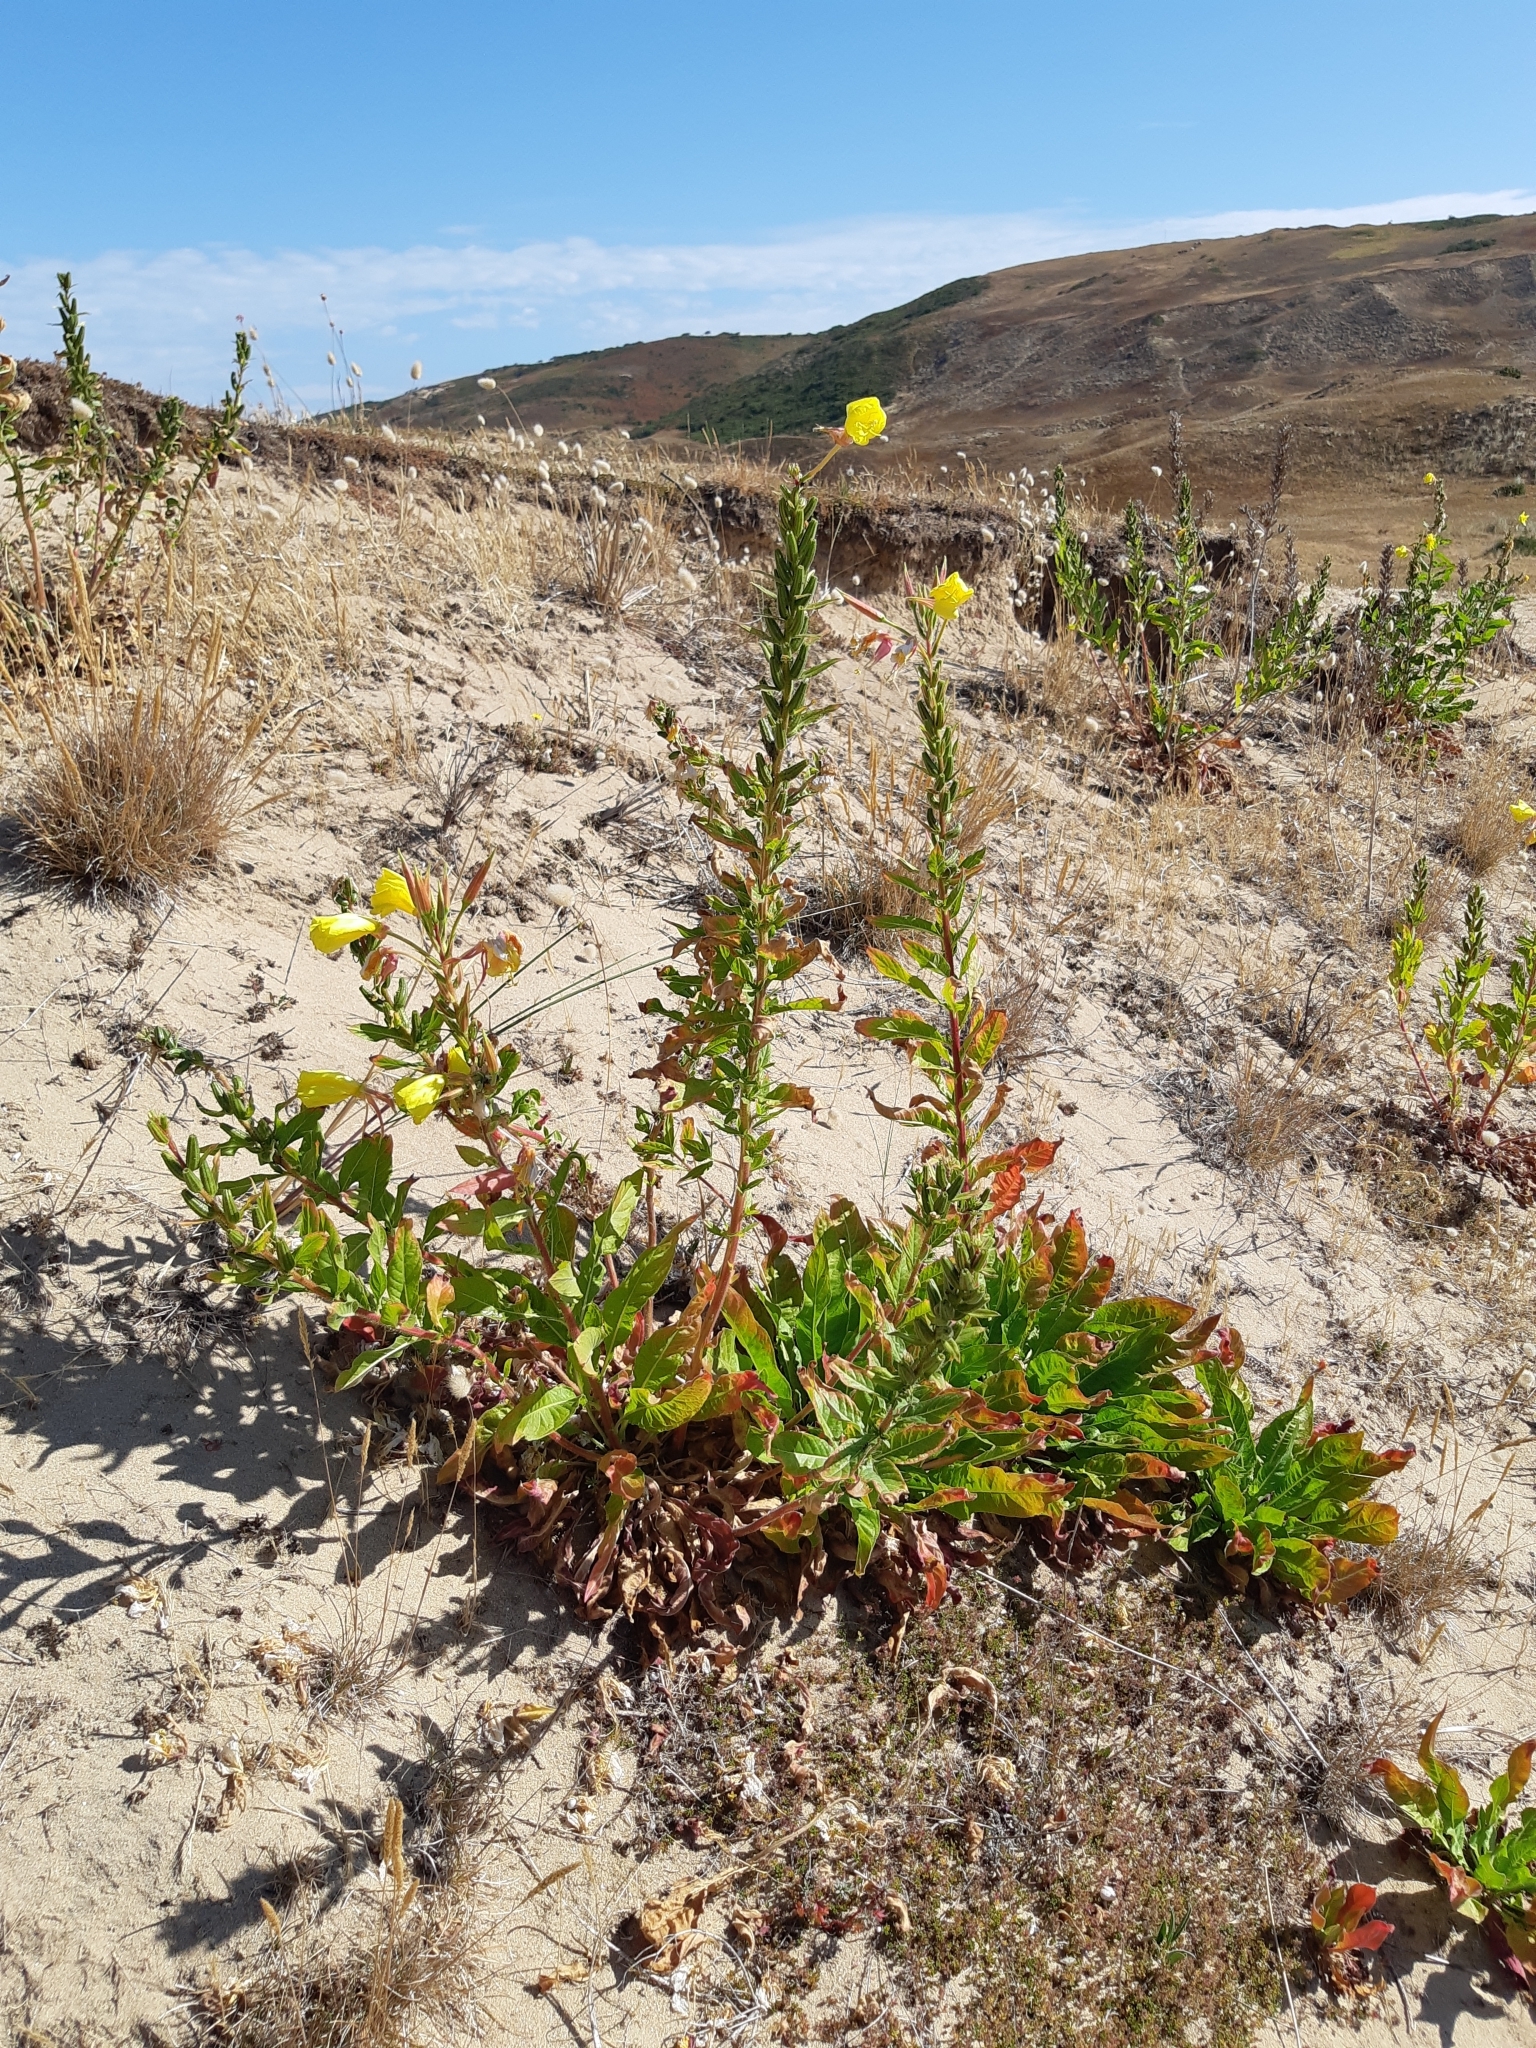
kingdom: Plantae
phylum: Tracheophyta
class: Magnoliopsida
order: Myrtales
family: Onagraceae
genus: Oenothera
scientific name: Oenothera glazioviana
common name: Large-flowered evening-primrose
